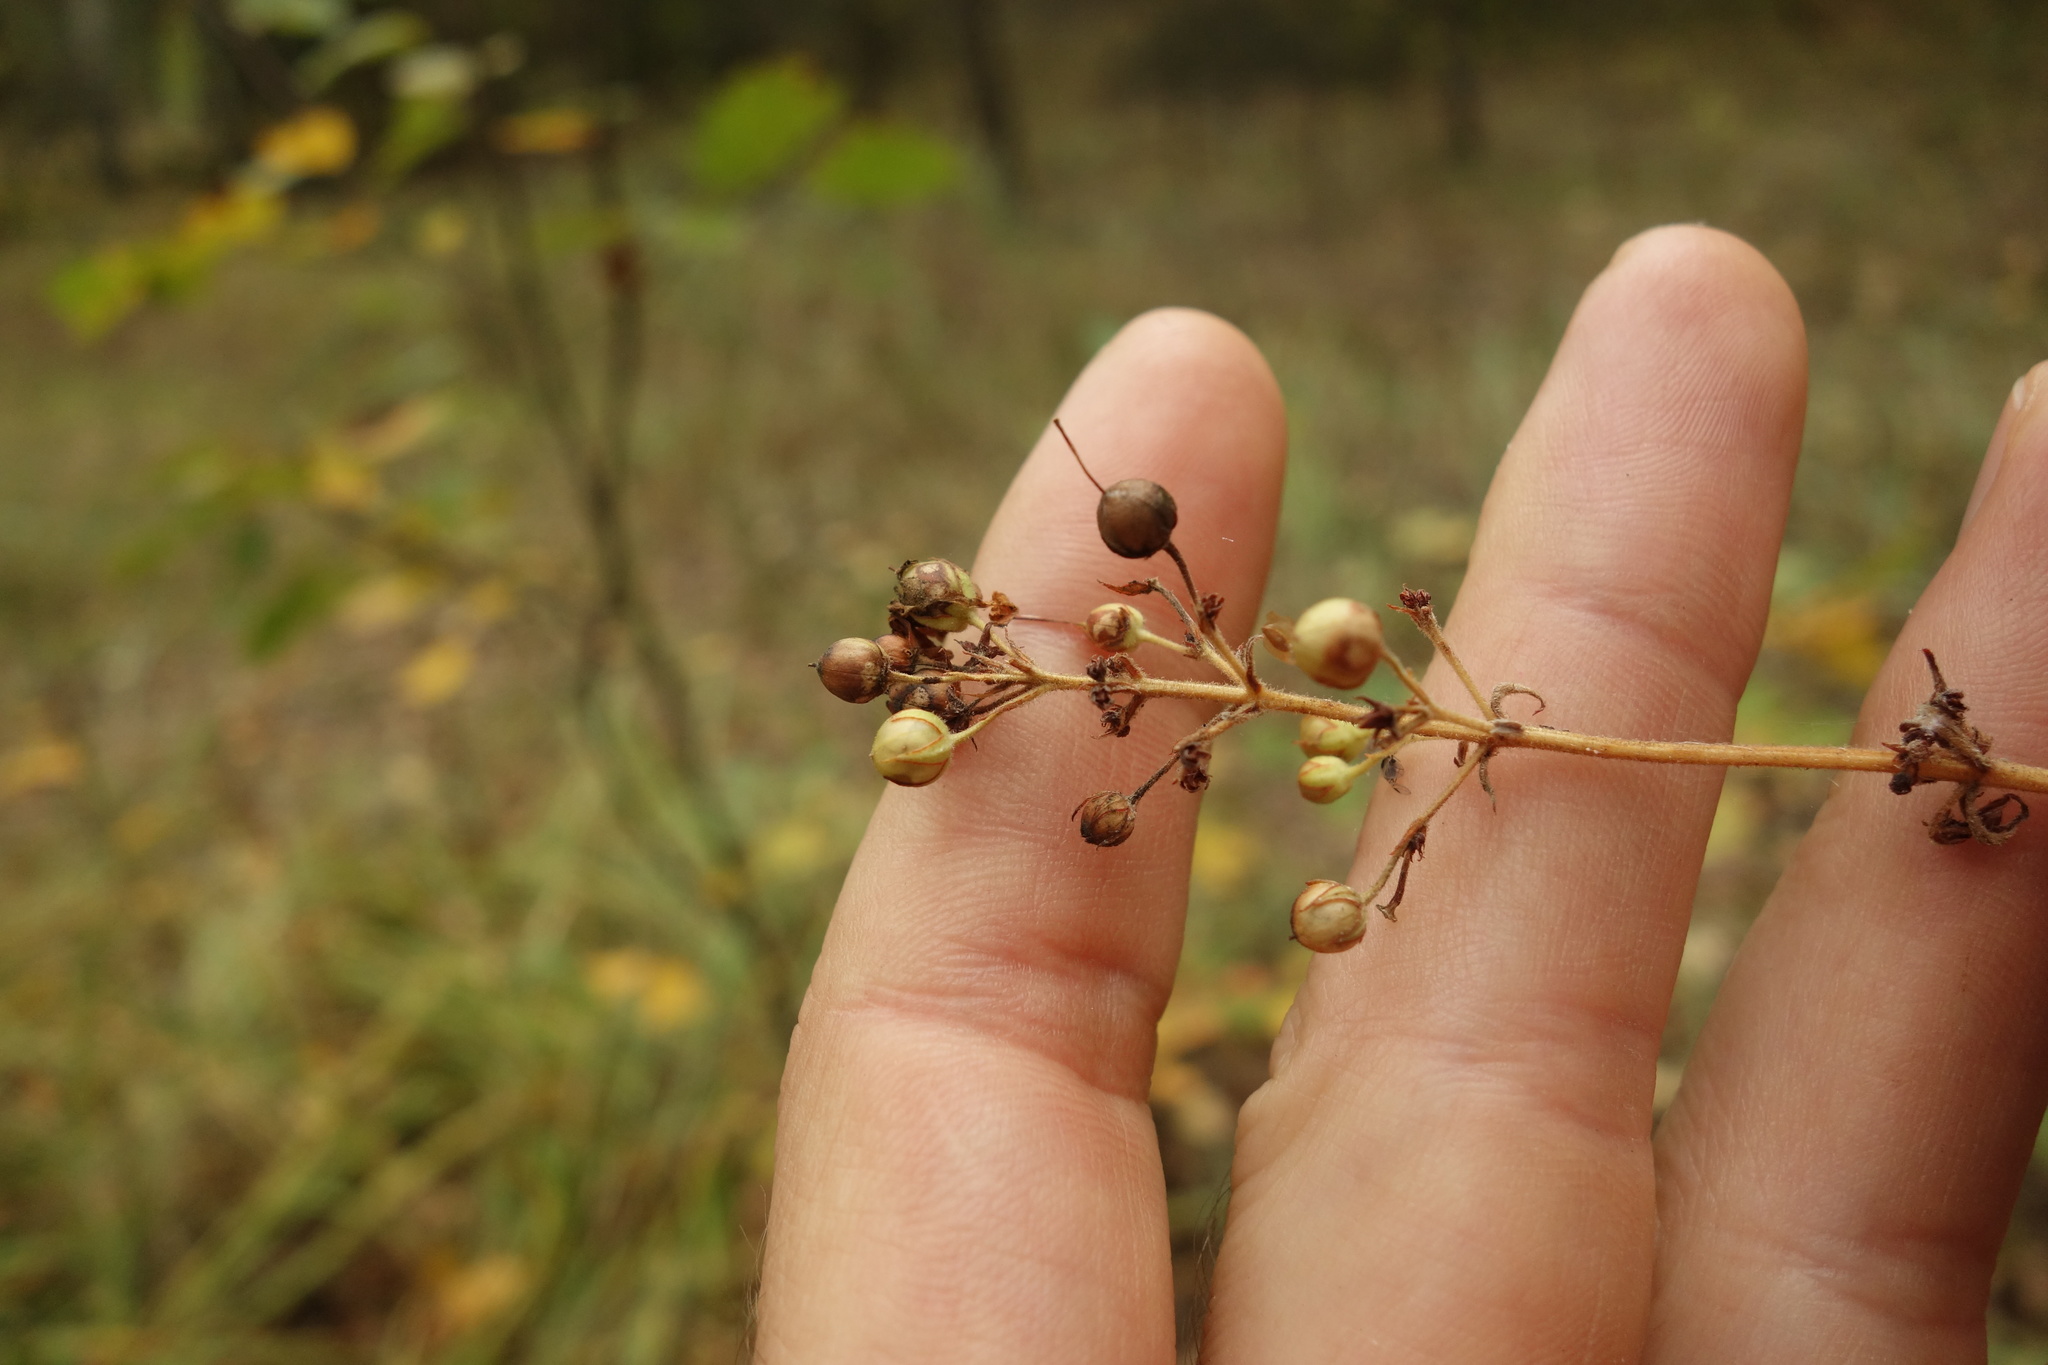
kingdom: Plantae
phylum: Tracheophyta
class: Magnoliopsida
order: Ericales
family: Primulaceae
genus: Lysimachia
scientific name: Lysimachia vulgaris
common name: Yellow loosestrife
